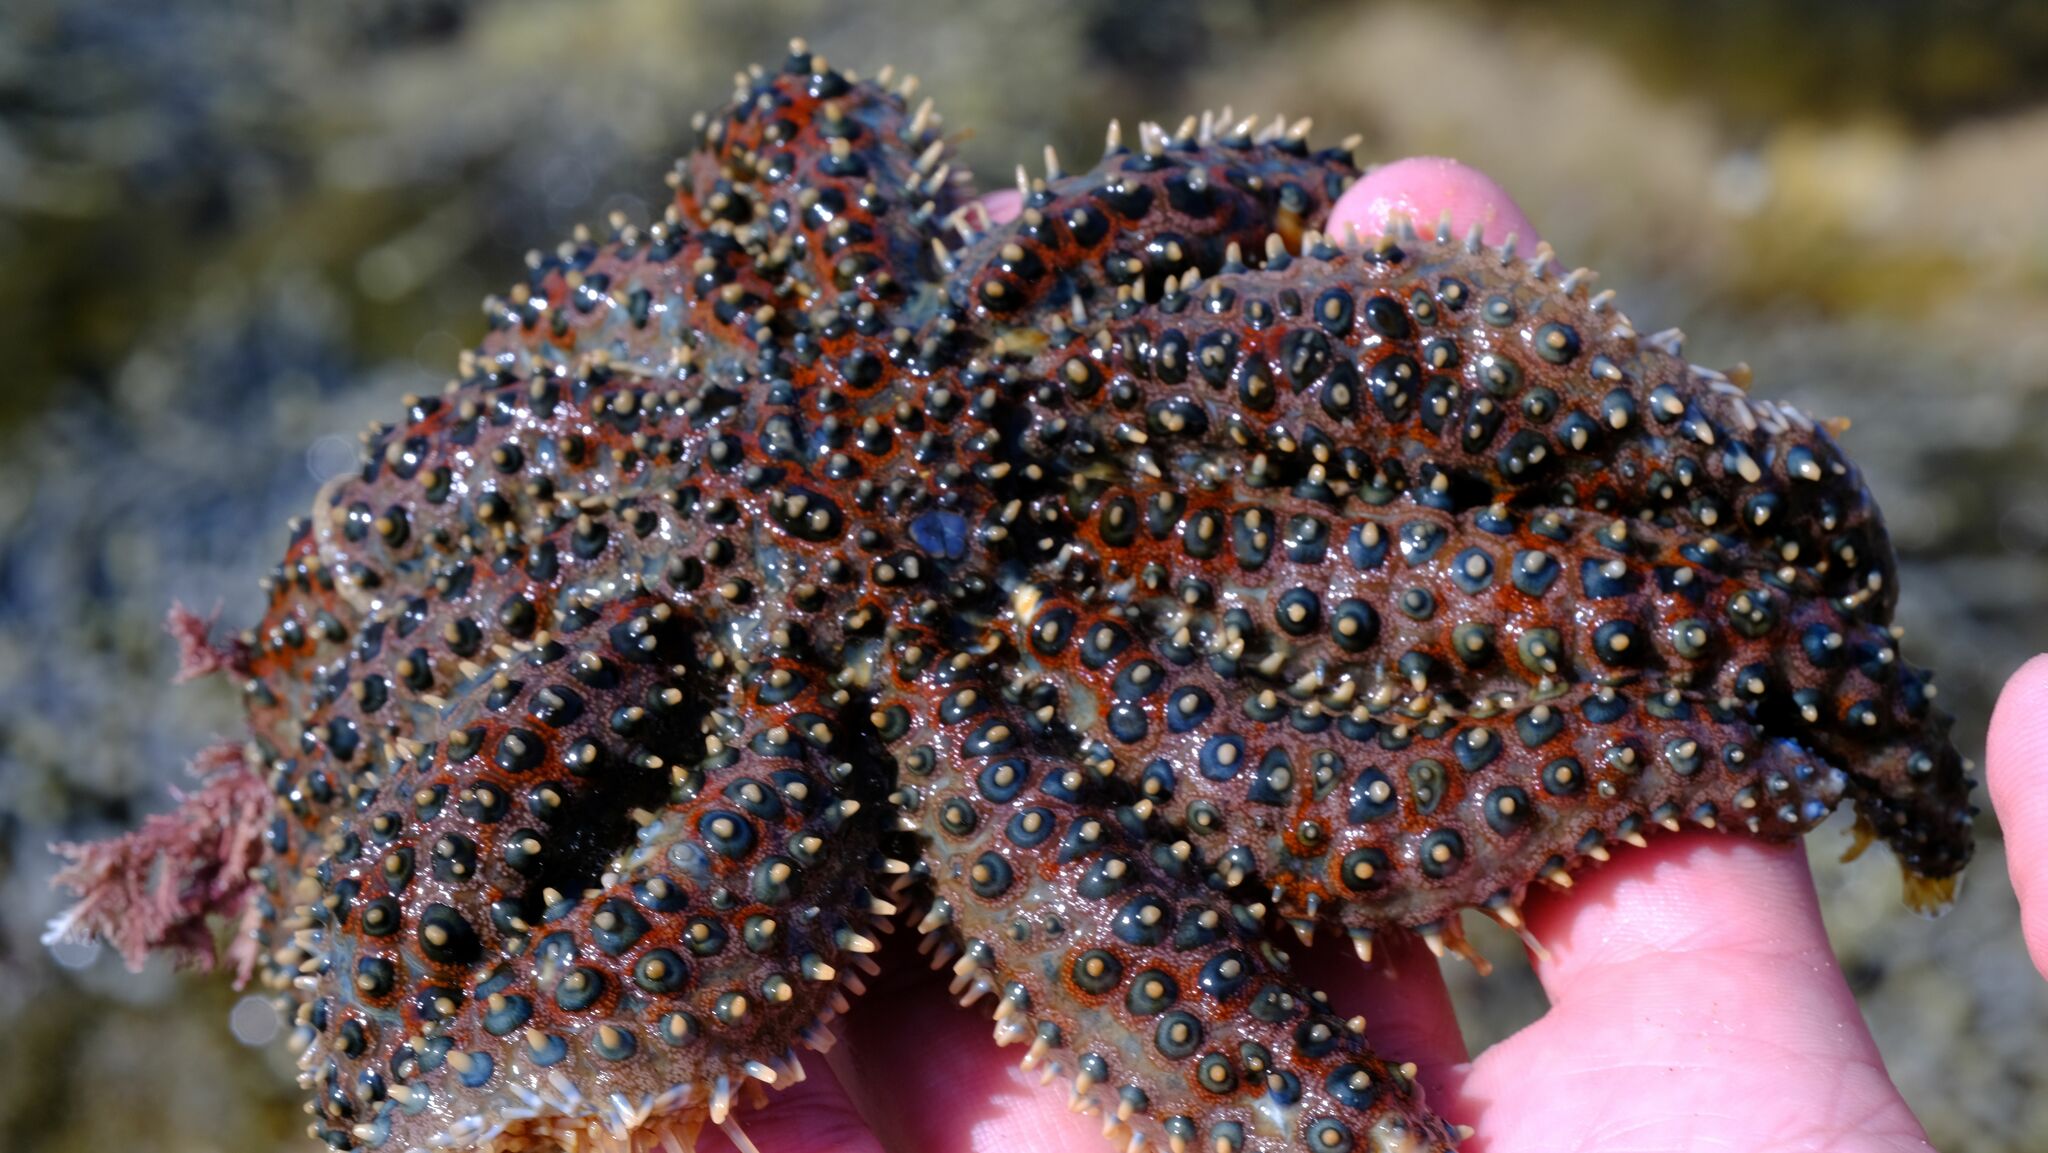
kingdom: Animalia
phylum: Echinodermata
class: Asteroidea
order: Forcipulatida
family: Asteriidae
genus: Coscinasterias
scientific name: Coscinasterias muricata
